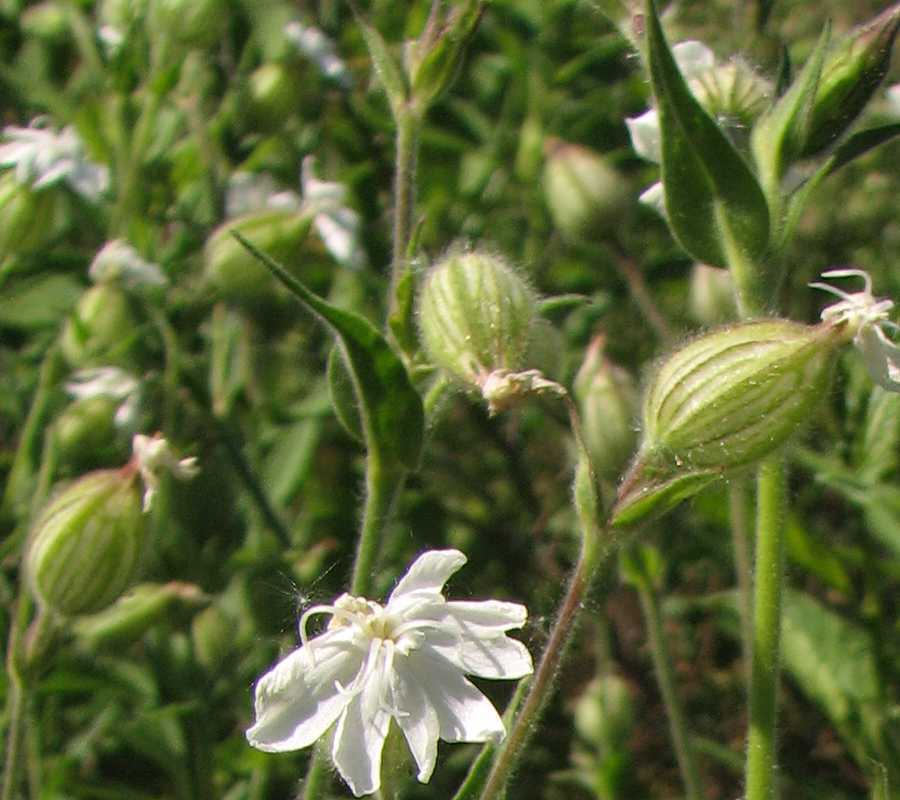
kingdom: Plantae
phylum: Tracheophyta
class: Magnoliopsida
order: Caryophyllales
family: Caryophyllaceae
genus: Silene
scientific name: Silene latifolia
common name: White campion
